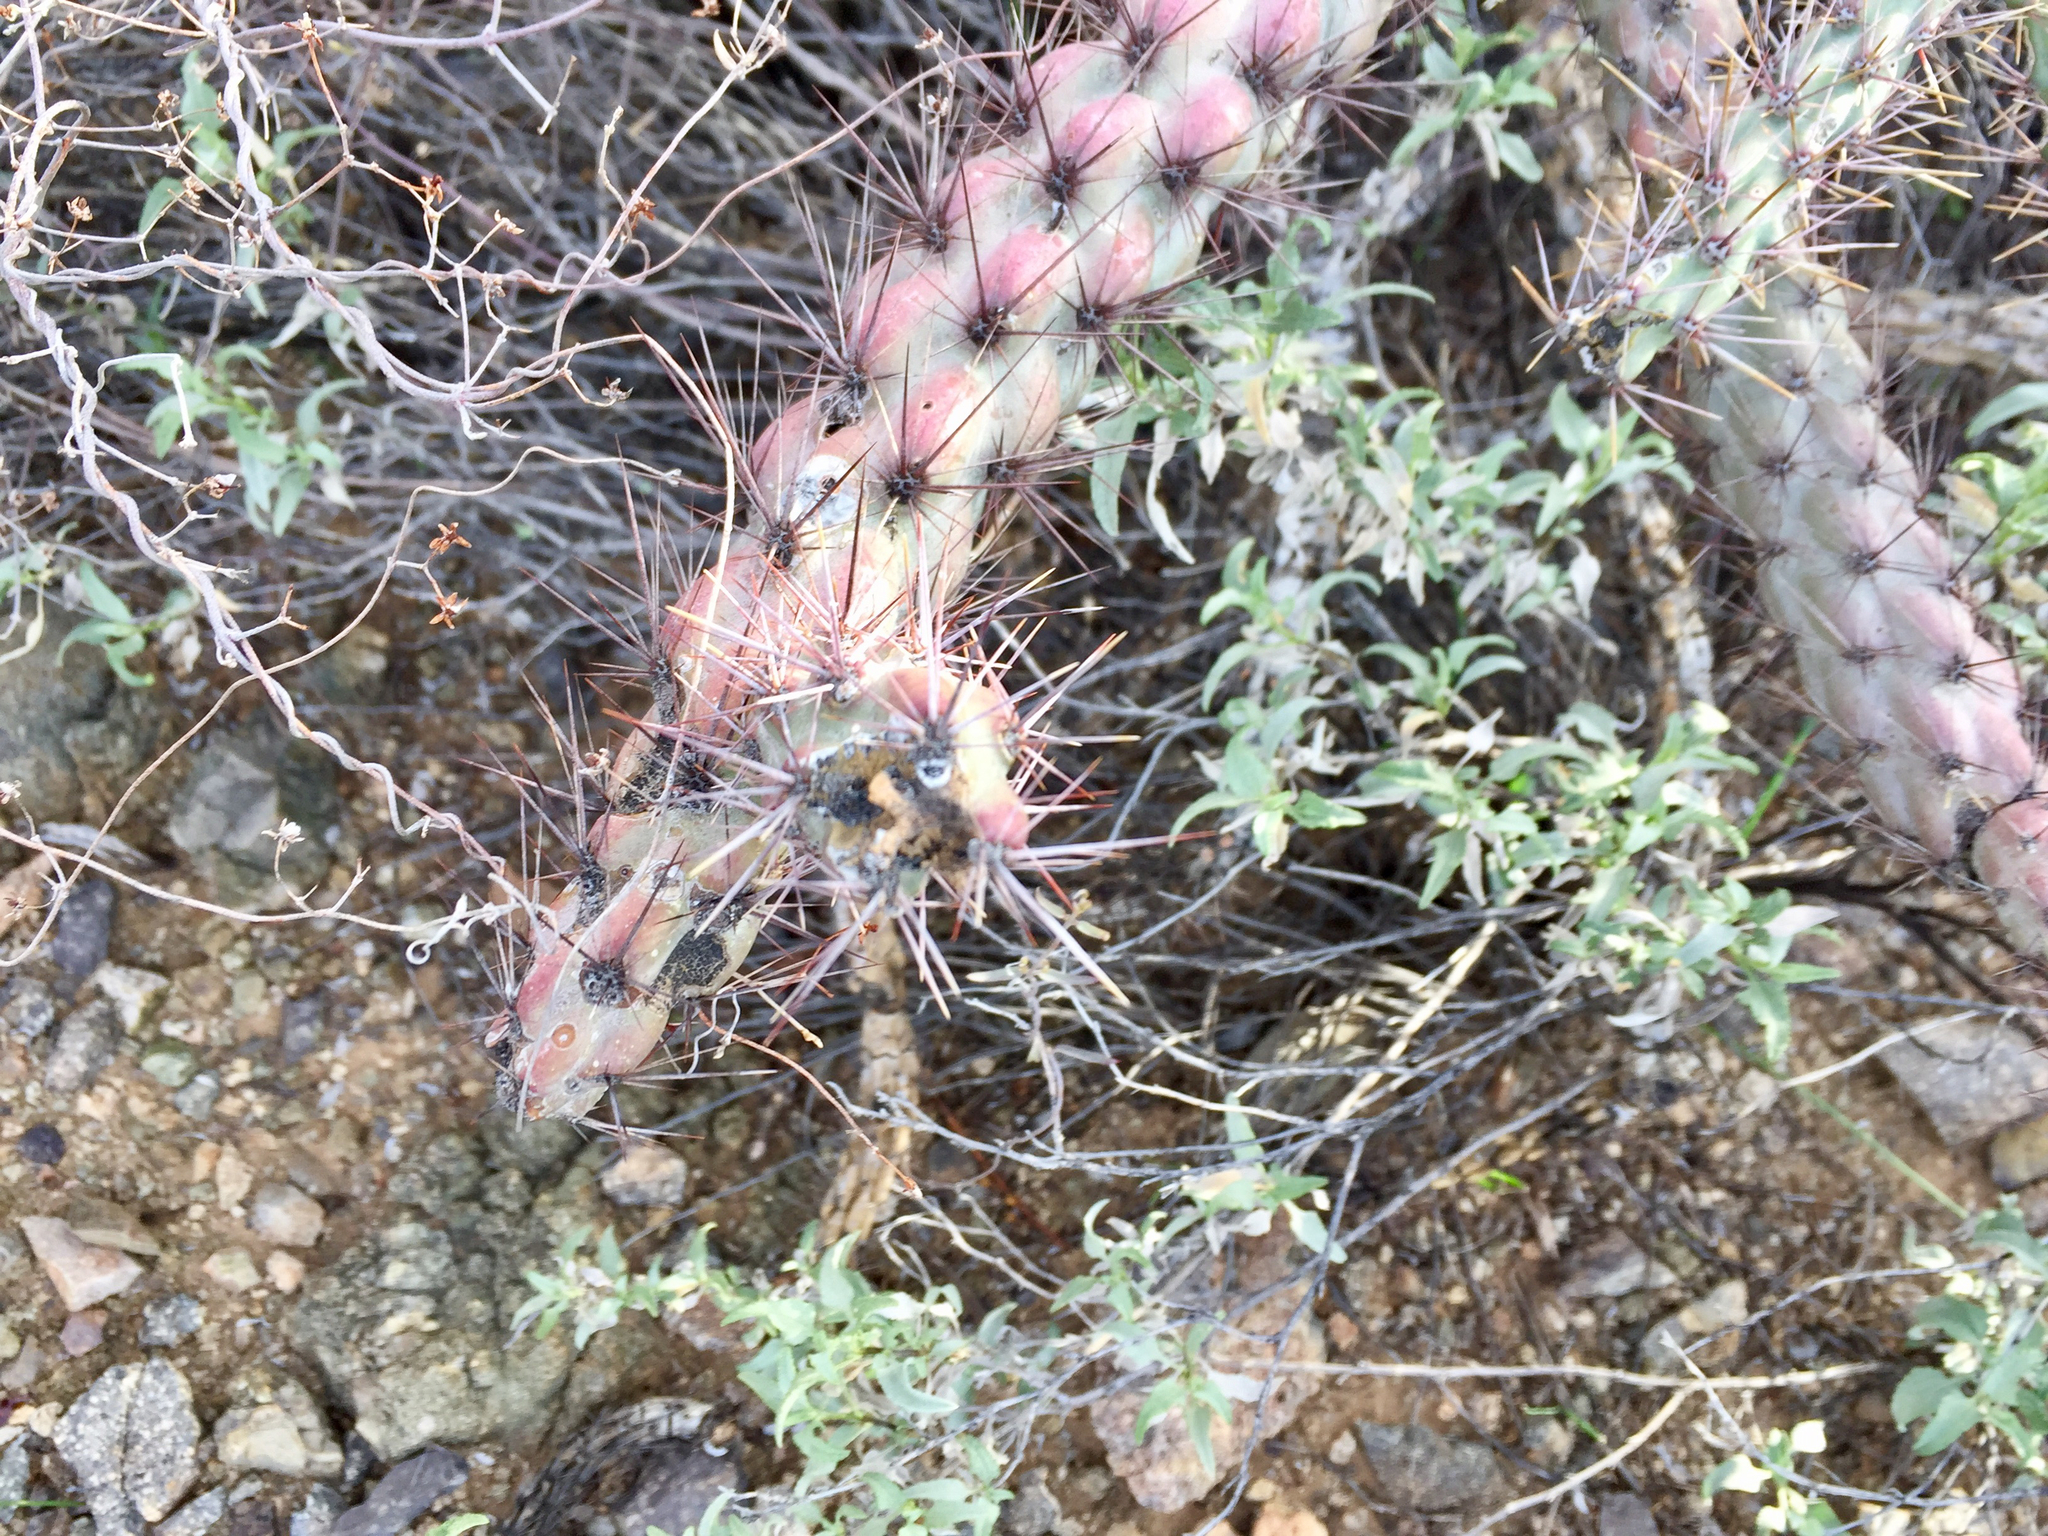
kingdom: Plantae
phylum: Tracheophyta
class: Magnoliopsida
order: Caryophyllales
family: Cactaceae
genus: Cylindropuntia
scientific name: Cylindropuntia thurberi
